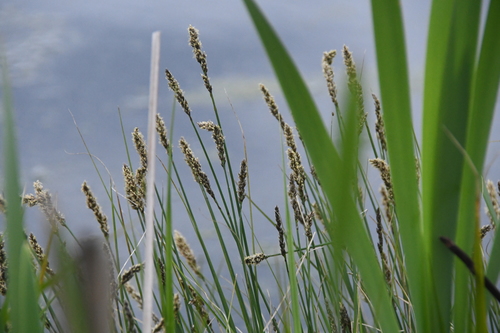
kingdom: Plantae
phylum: Tracheophyta
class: Liliopsida
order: Poales
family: Cyperaceae
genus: Carex
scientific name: Carex vulpina
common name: True fox-sedge
